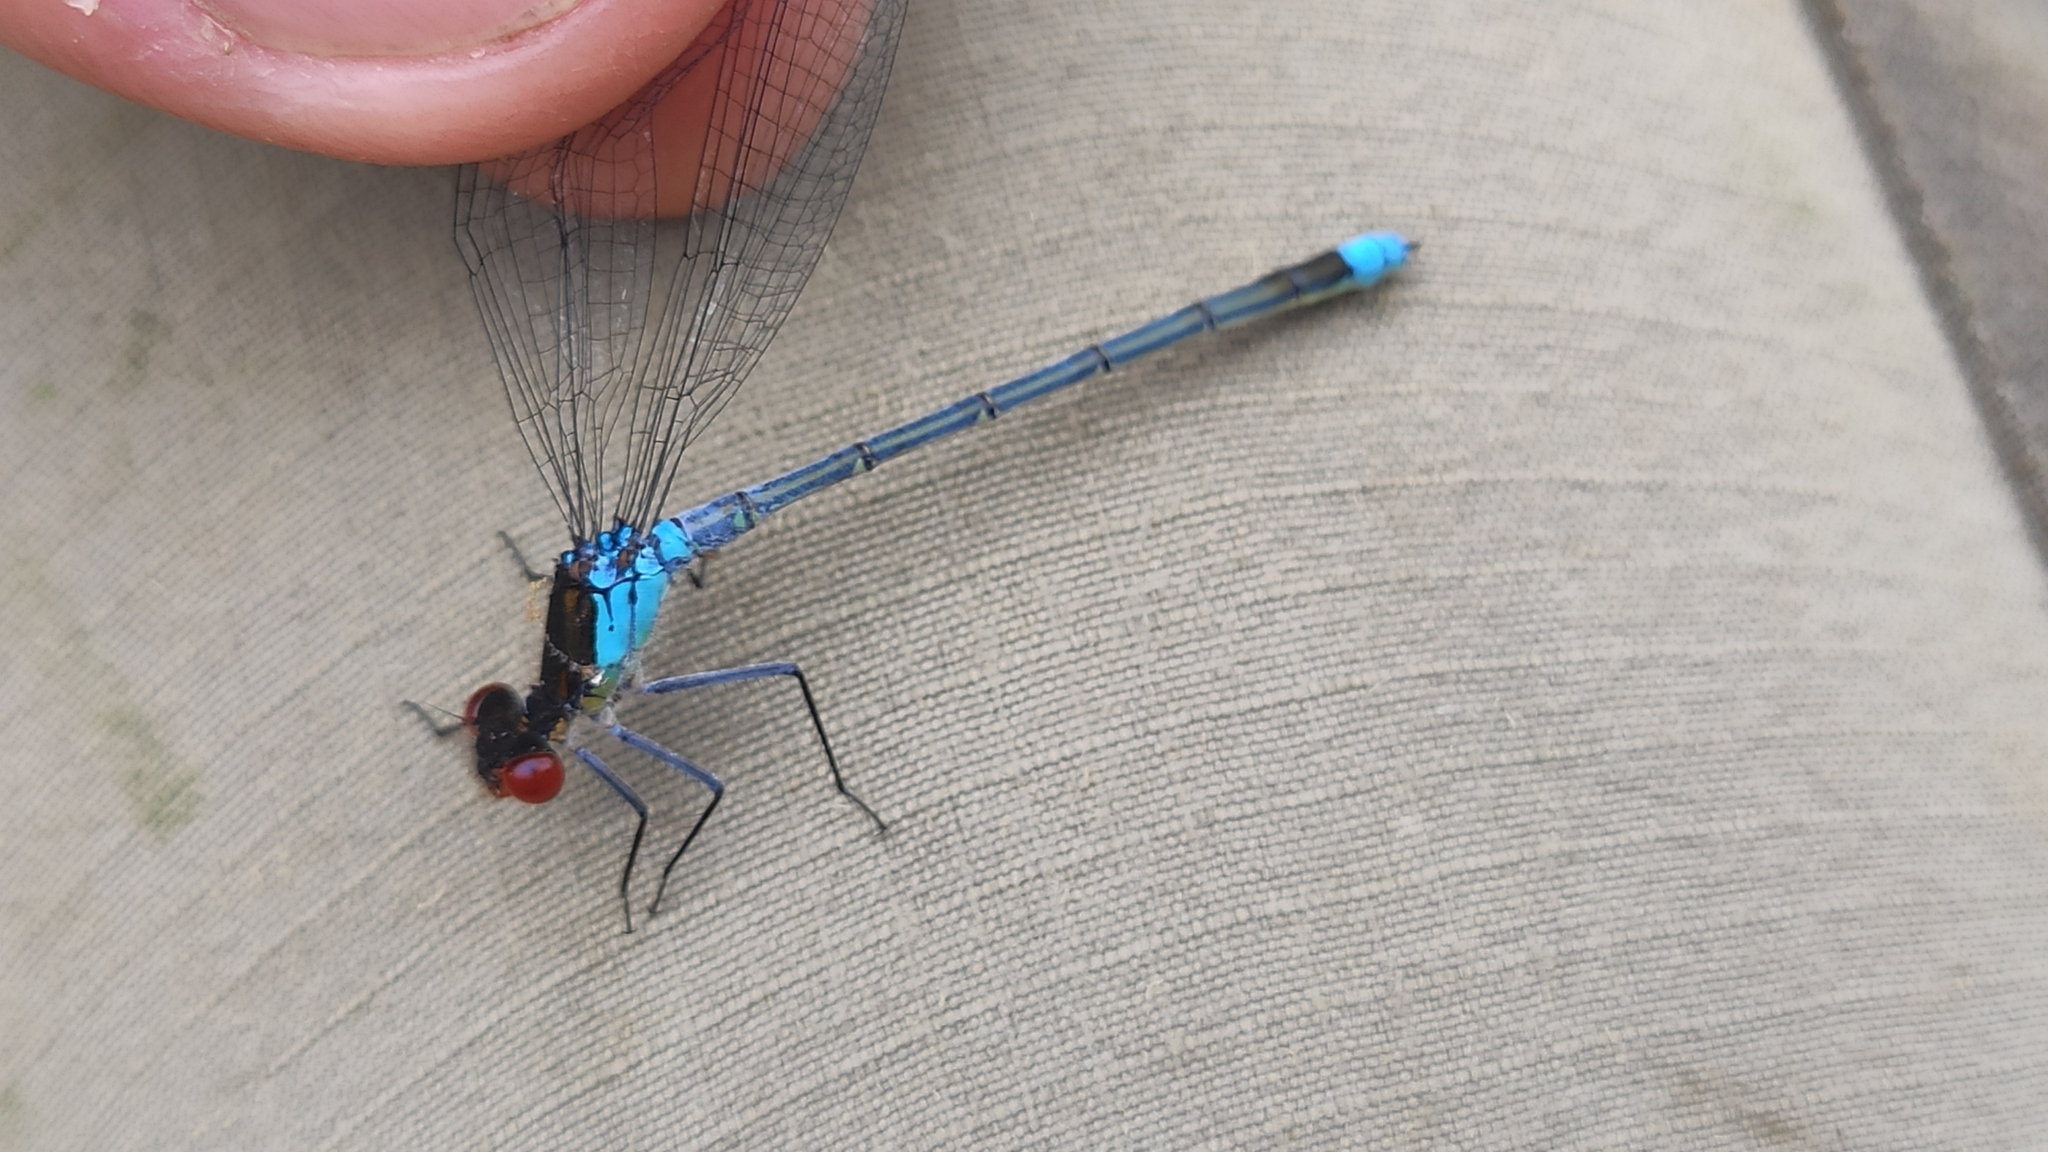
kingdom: Animalia
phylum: Arthropoda
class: Insecta
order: Odonata
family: Coenagrionidae
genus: Erythromma
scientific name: Erythromma najas
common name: Red-eyed damselfly
